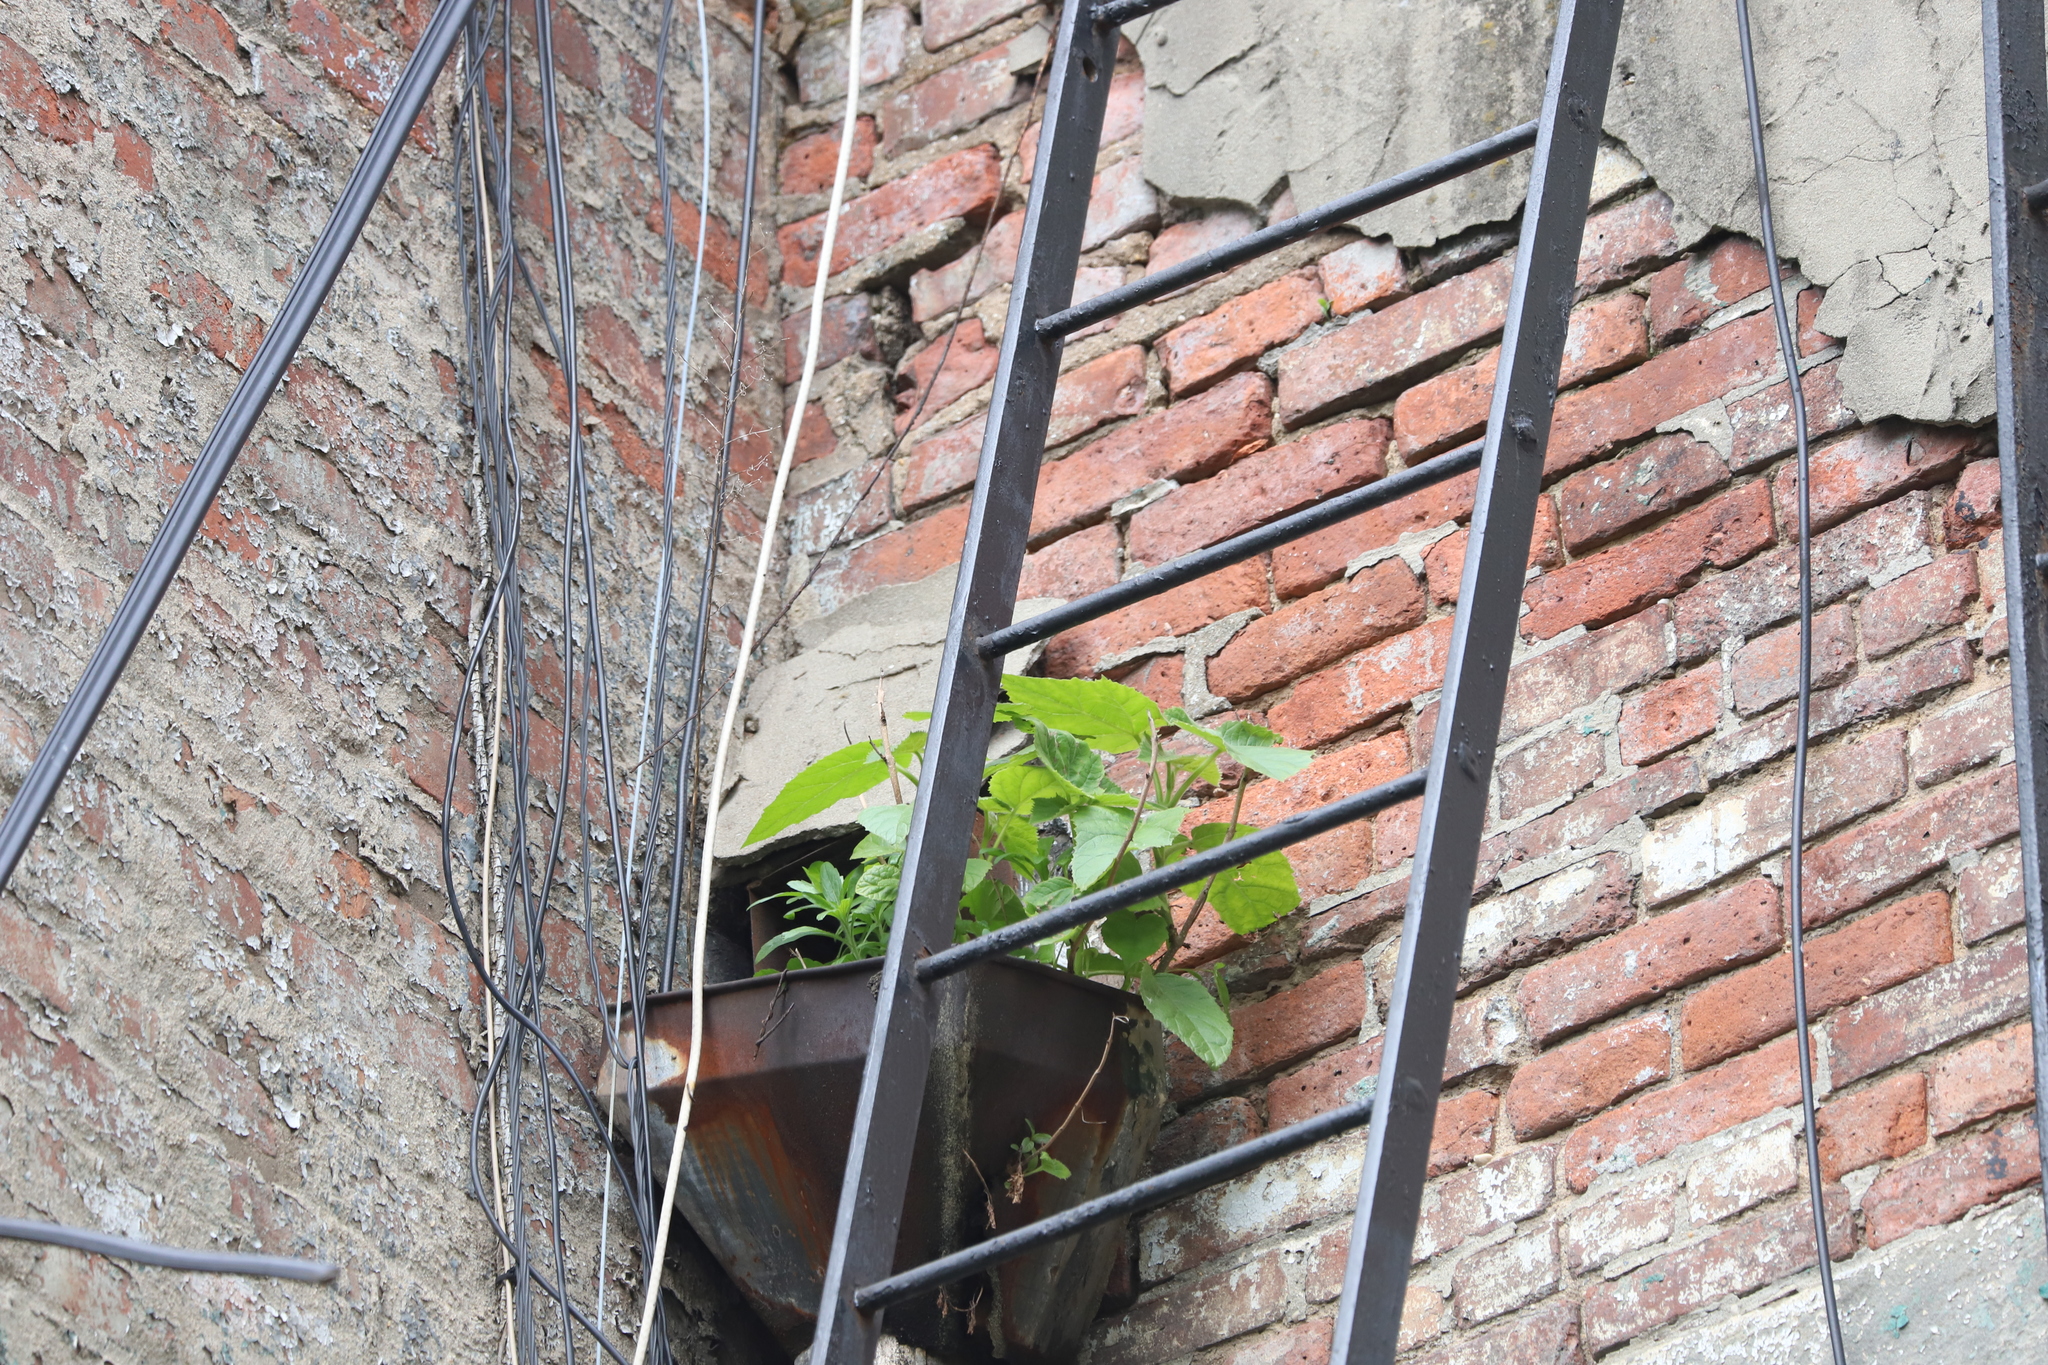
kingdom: Plantae
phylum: Tracheophyta
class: Magnoliopsida
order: Lamiales
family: Paulowniaceae
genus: Paulownia
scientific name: Paulownia tomentosa
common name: Foxglove-tree
